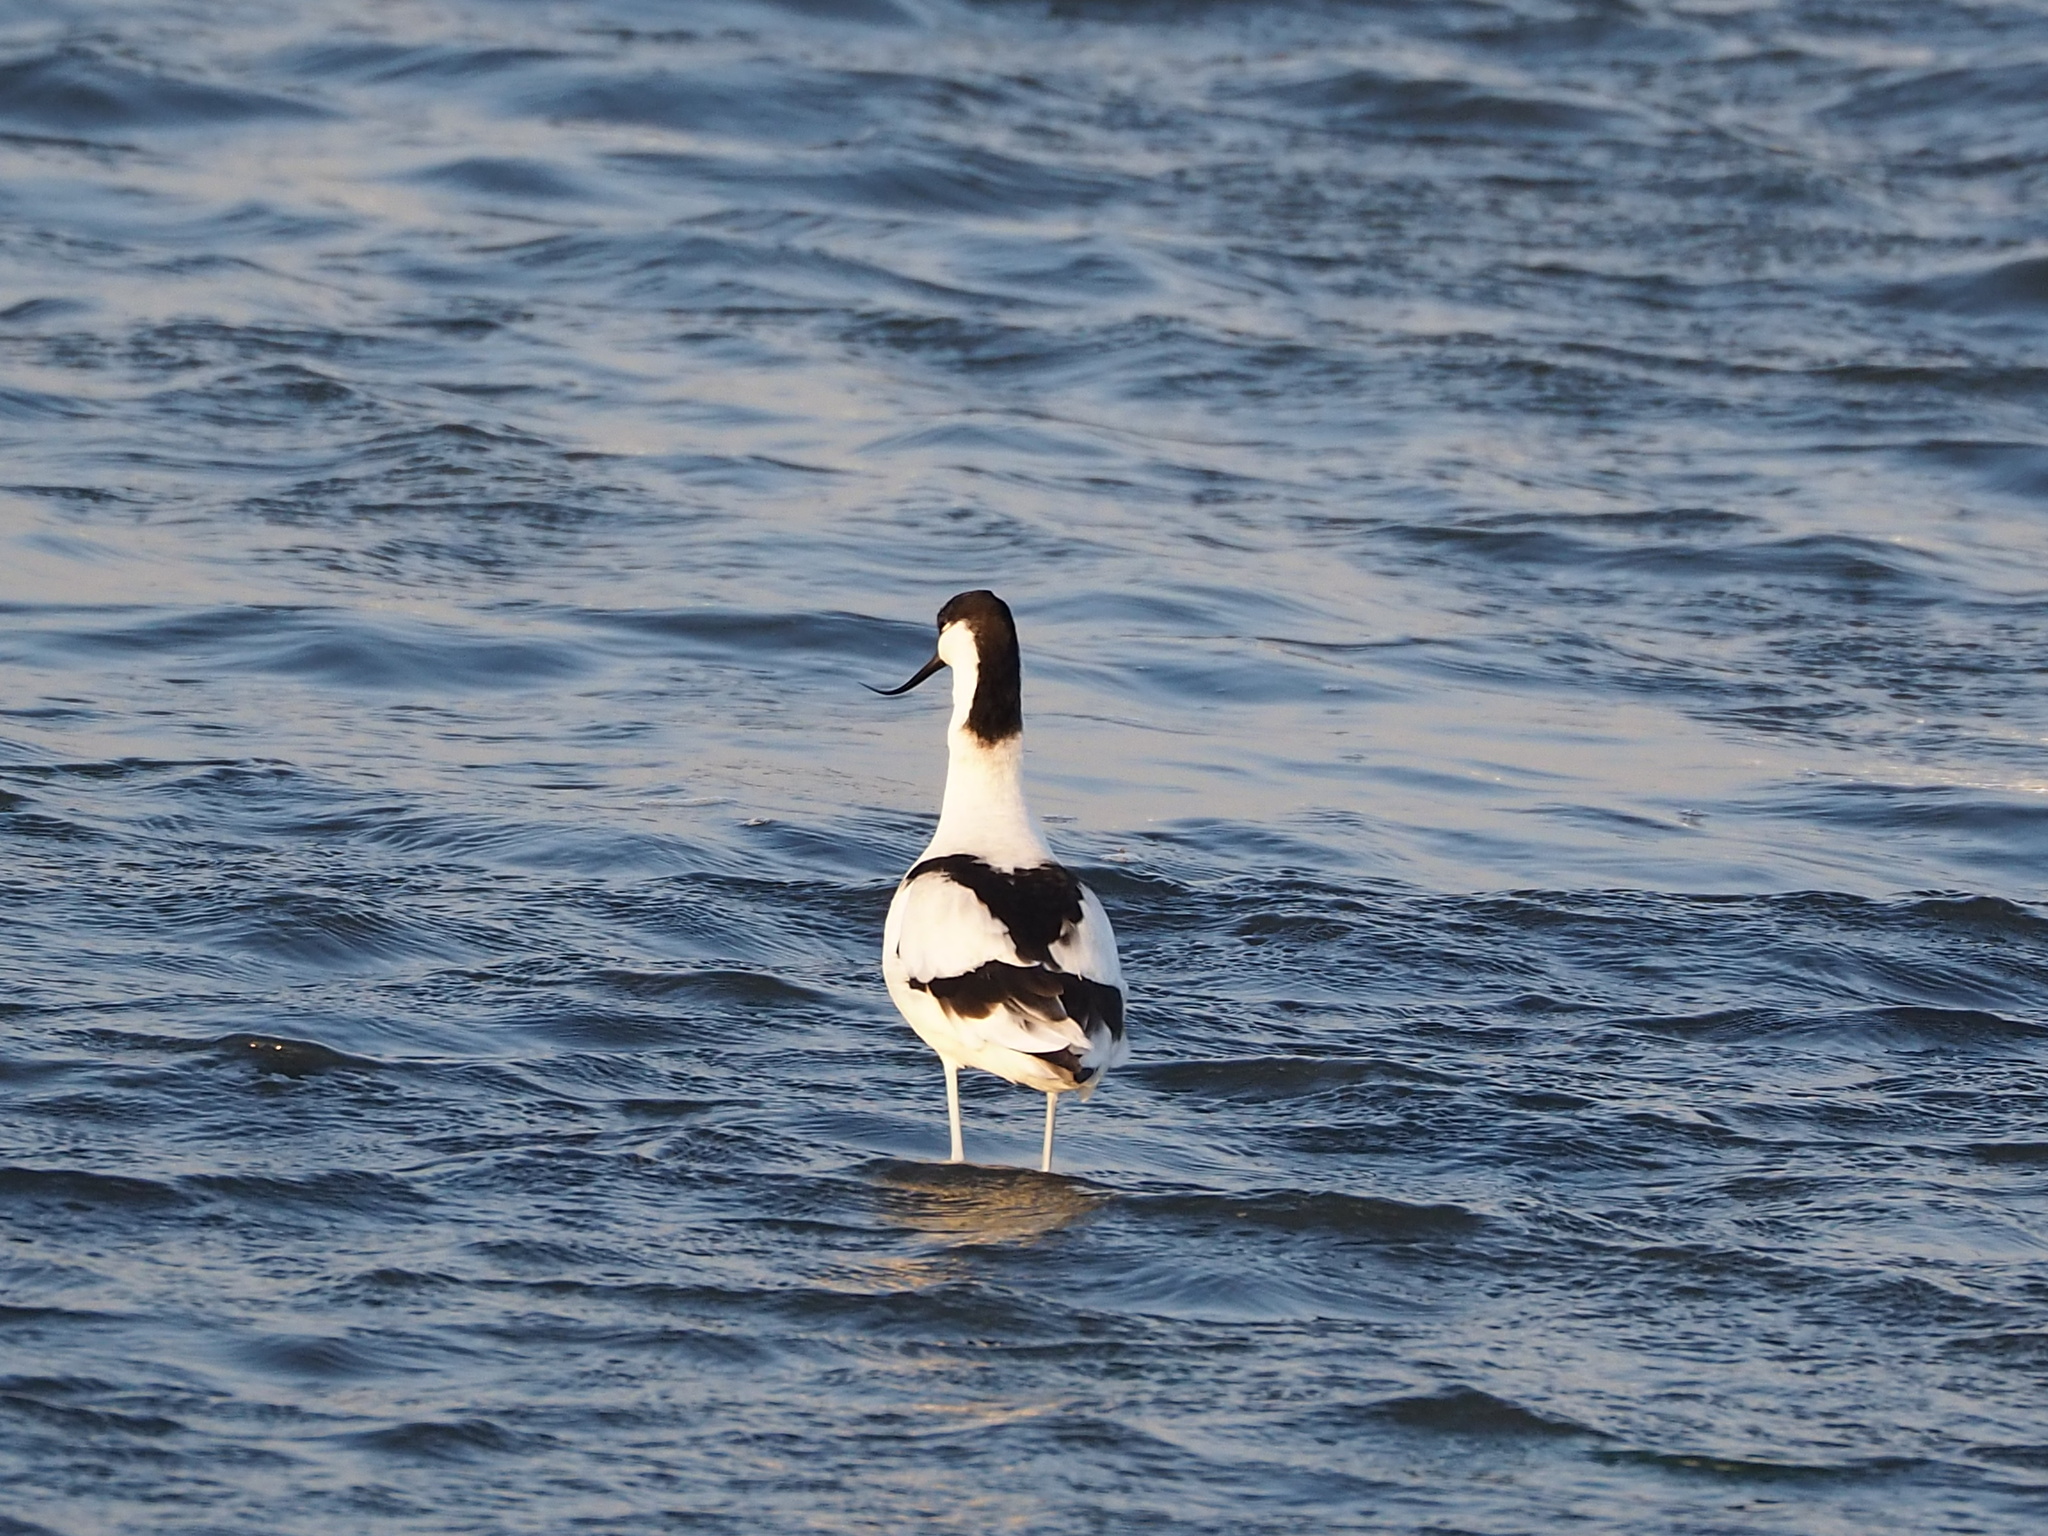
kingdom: Animalia
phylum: Chordata
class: Aves
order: Charadriiformes
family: Recurvirostridae
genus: Recurvirostra
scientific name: Recurvirostra avosetta
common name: Pied avocet
